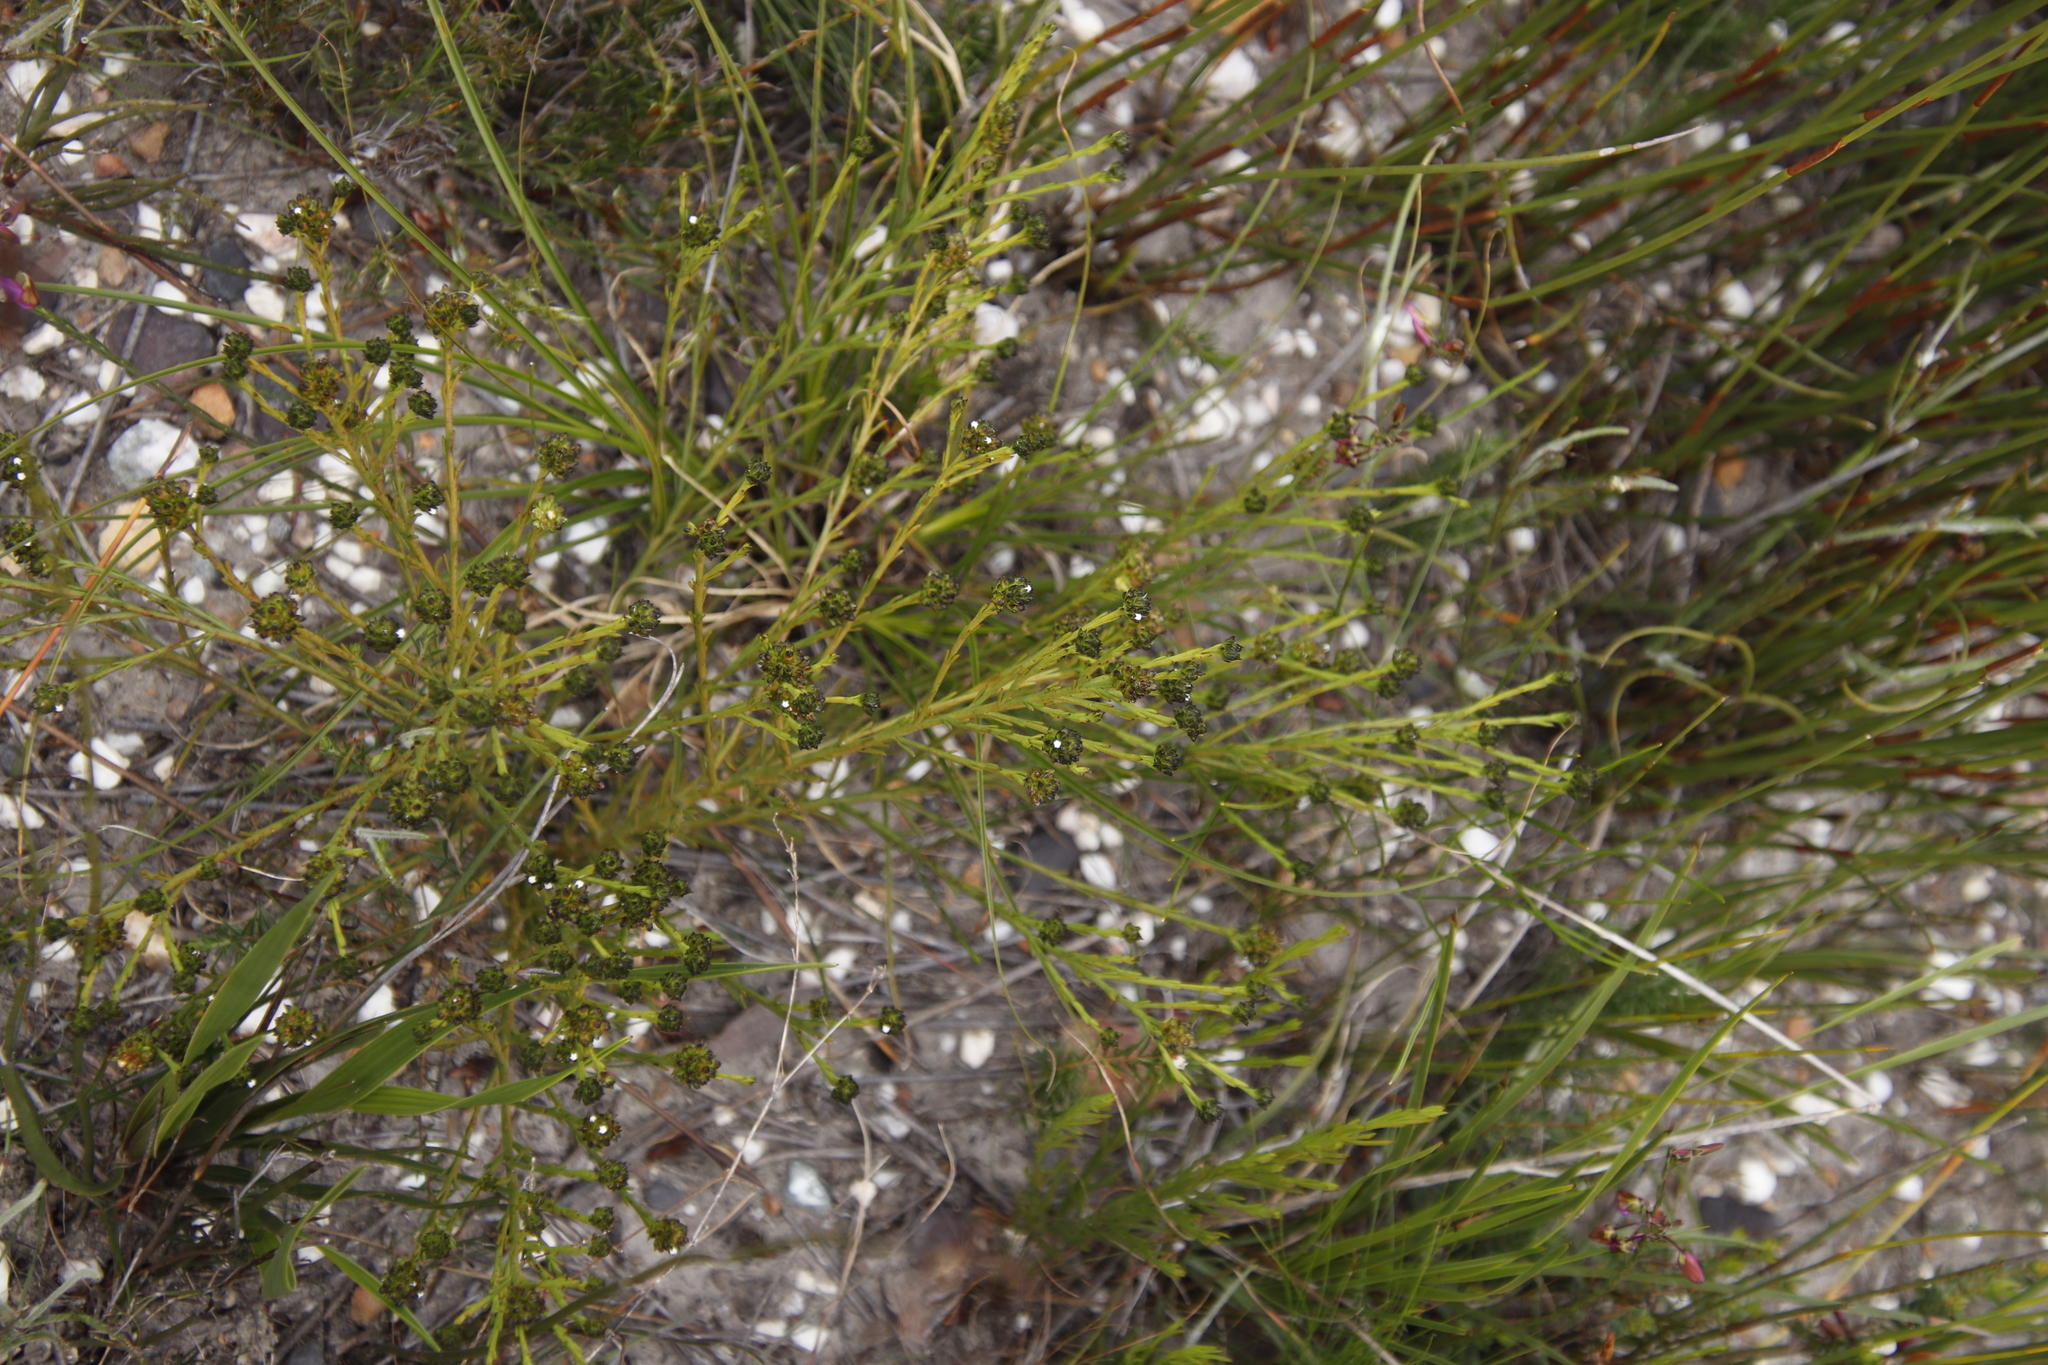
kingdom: Plantae
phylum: Tracheophyta
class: Magnoliopsida
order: Santalales
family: Thesiaceae
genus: Thesium
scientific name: Thesium densiflorum
